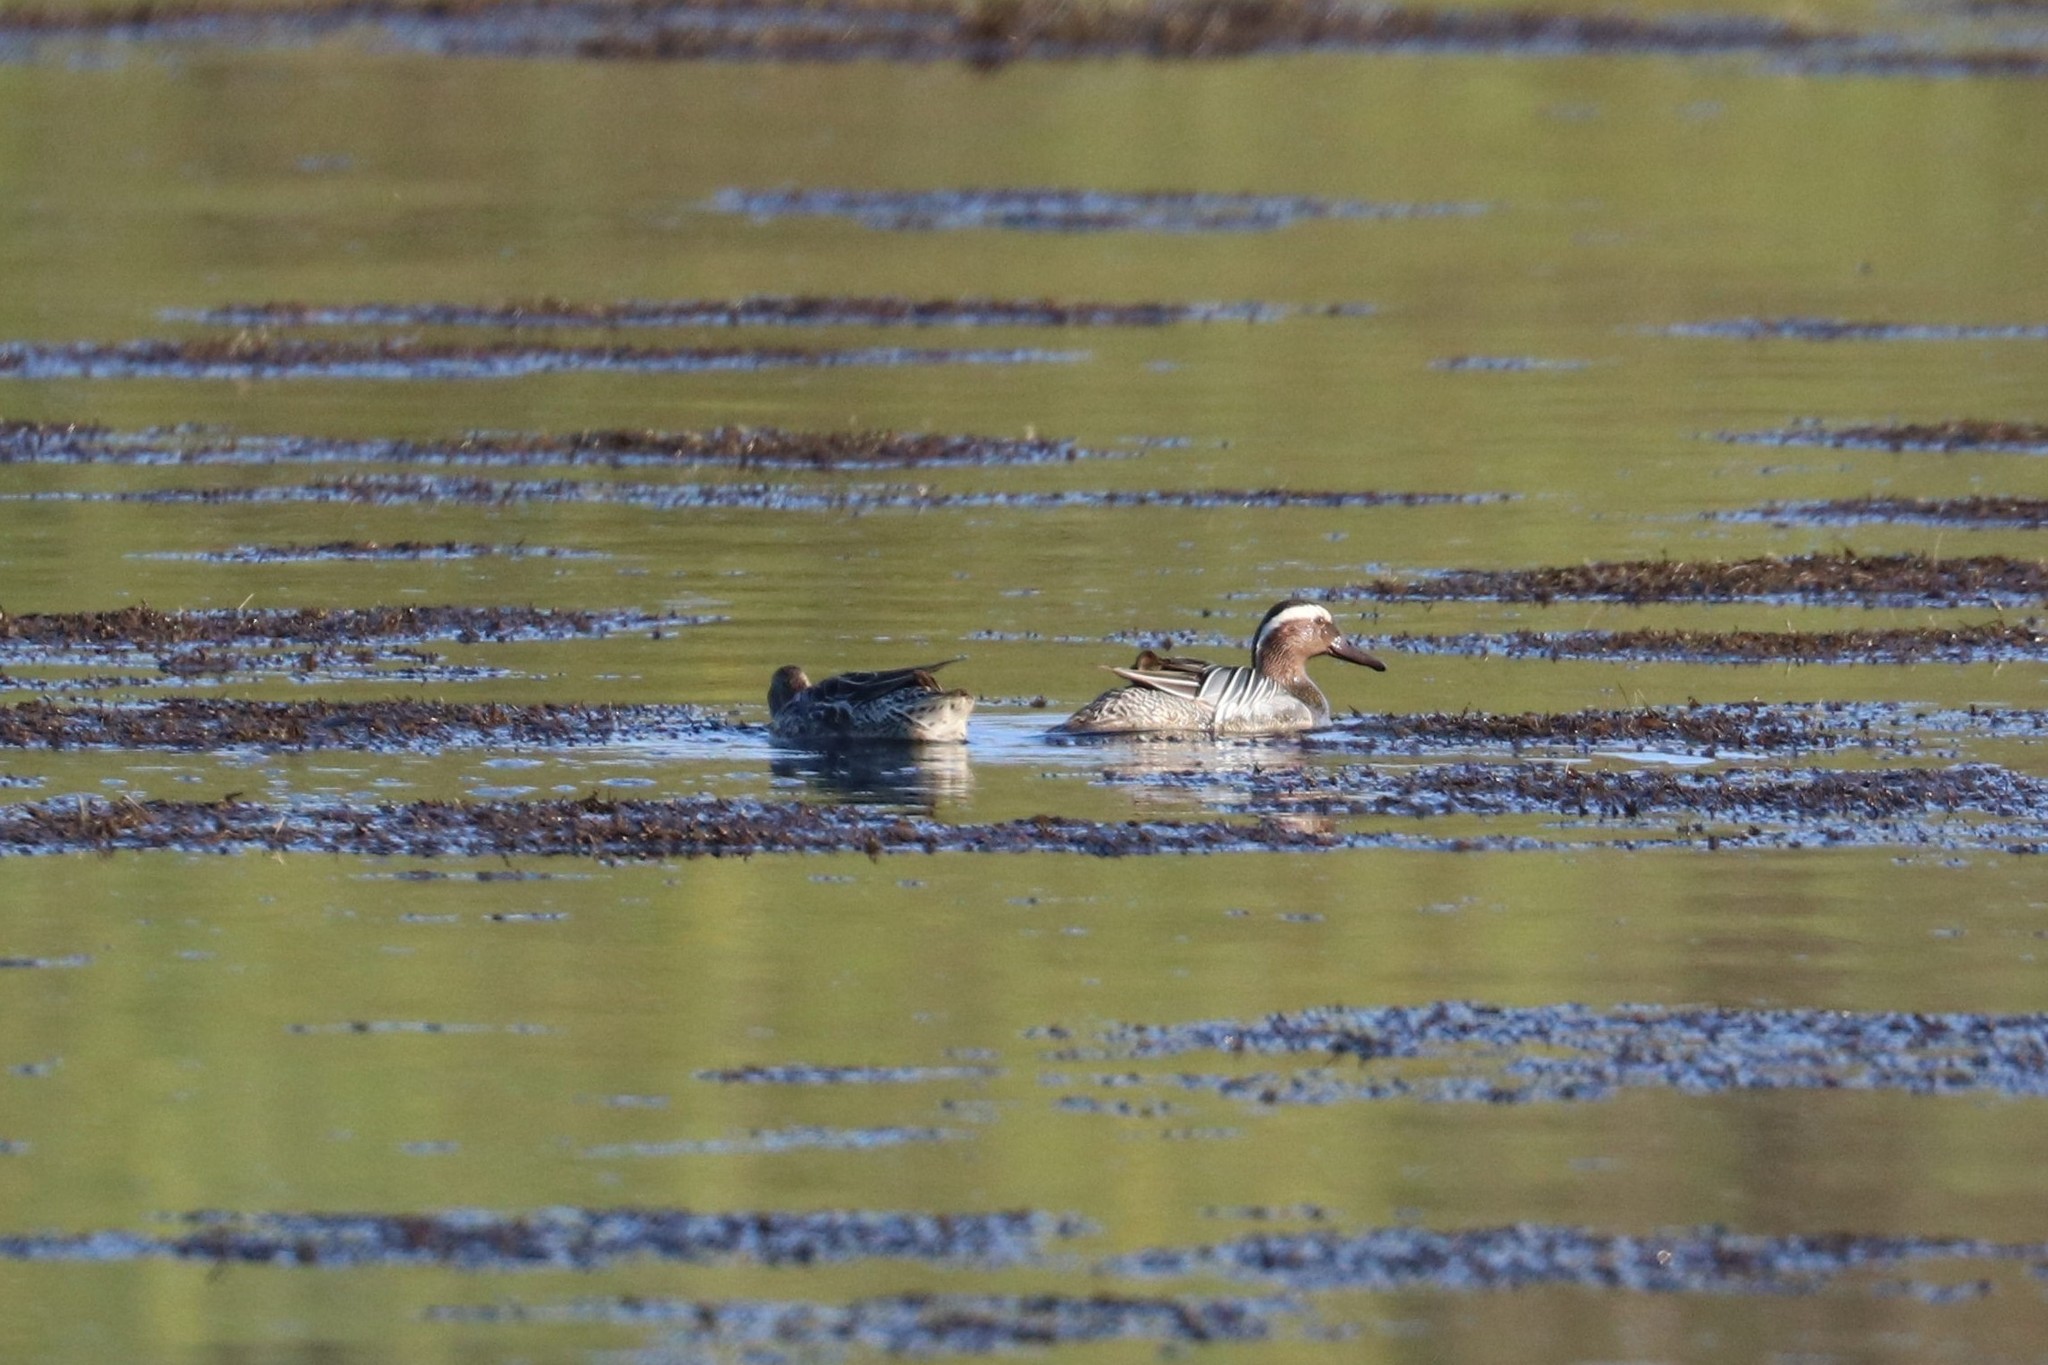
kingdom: Animalia
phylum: Chordata
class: Aves
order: Anseriformes
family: Anatidae
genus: Spatula
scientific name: Spatula querquedula
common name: Garganey
